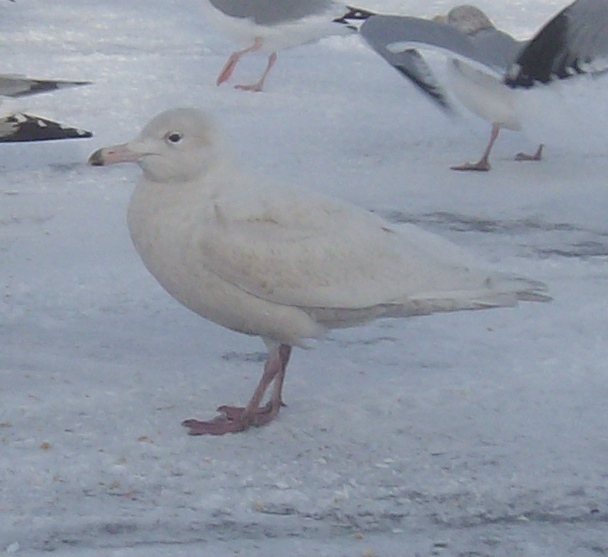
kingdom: Animalia
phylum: Chordata
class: Aves
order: Charadriiformes
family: Laridae
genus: Larus
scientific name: Larus hyperboreus
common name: Glaucous gull
